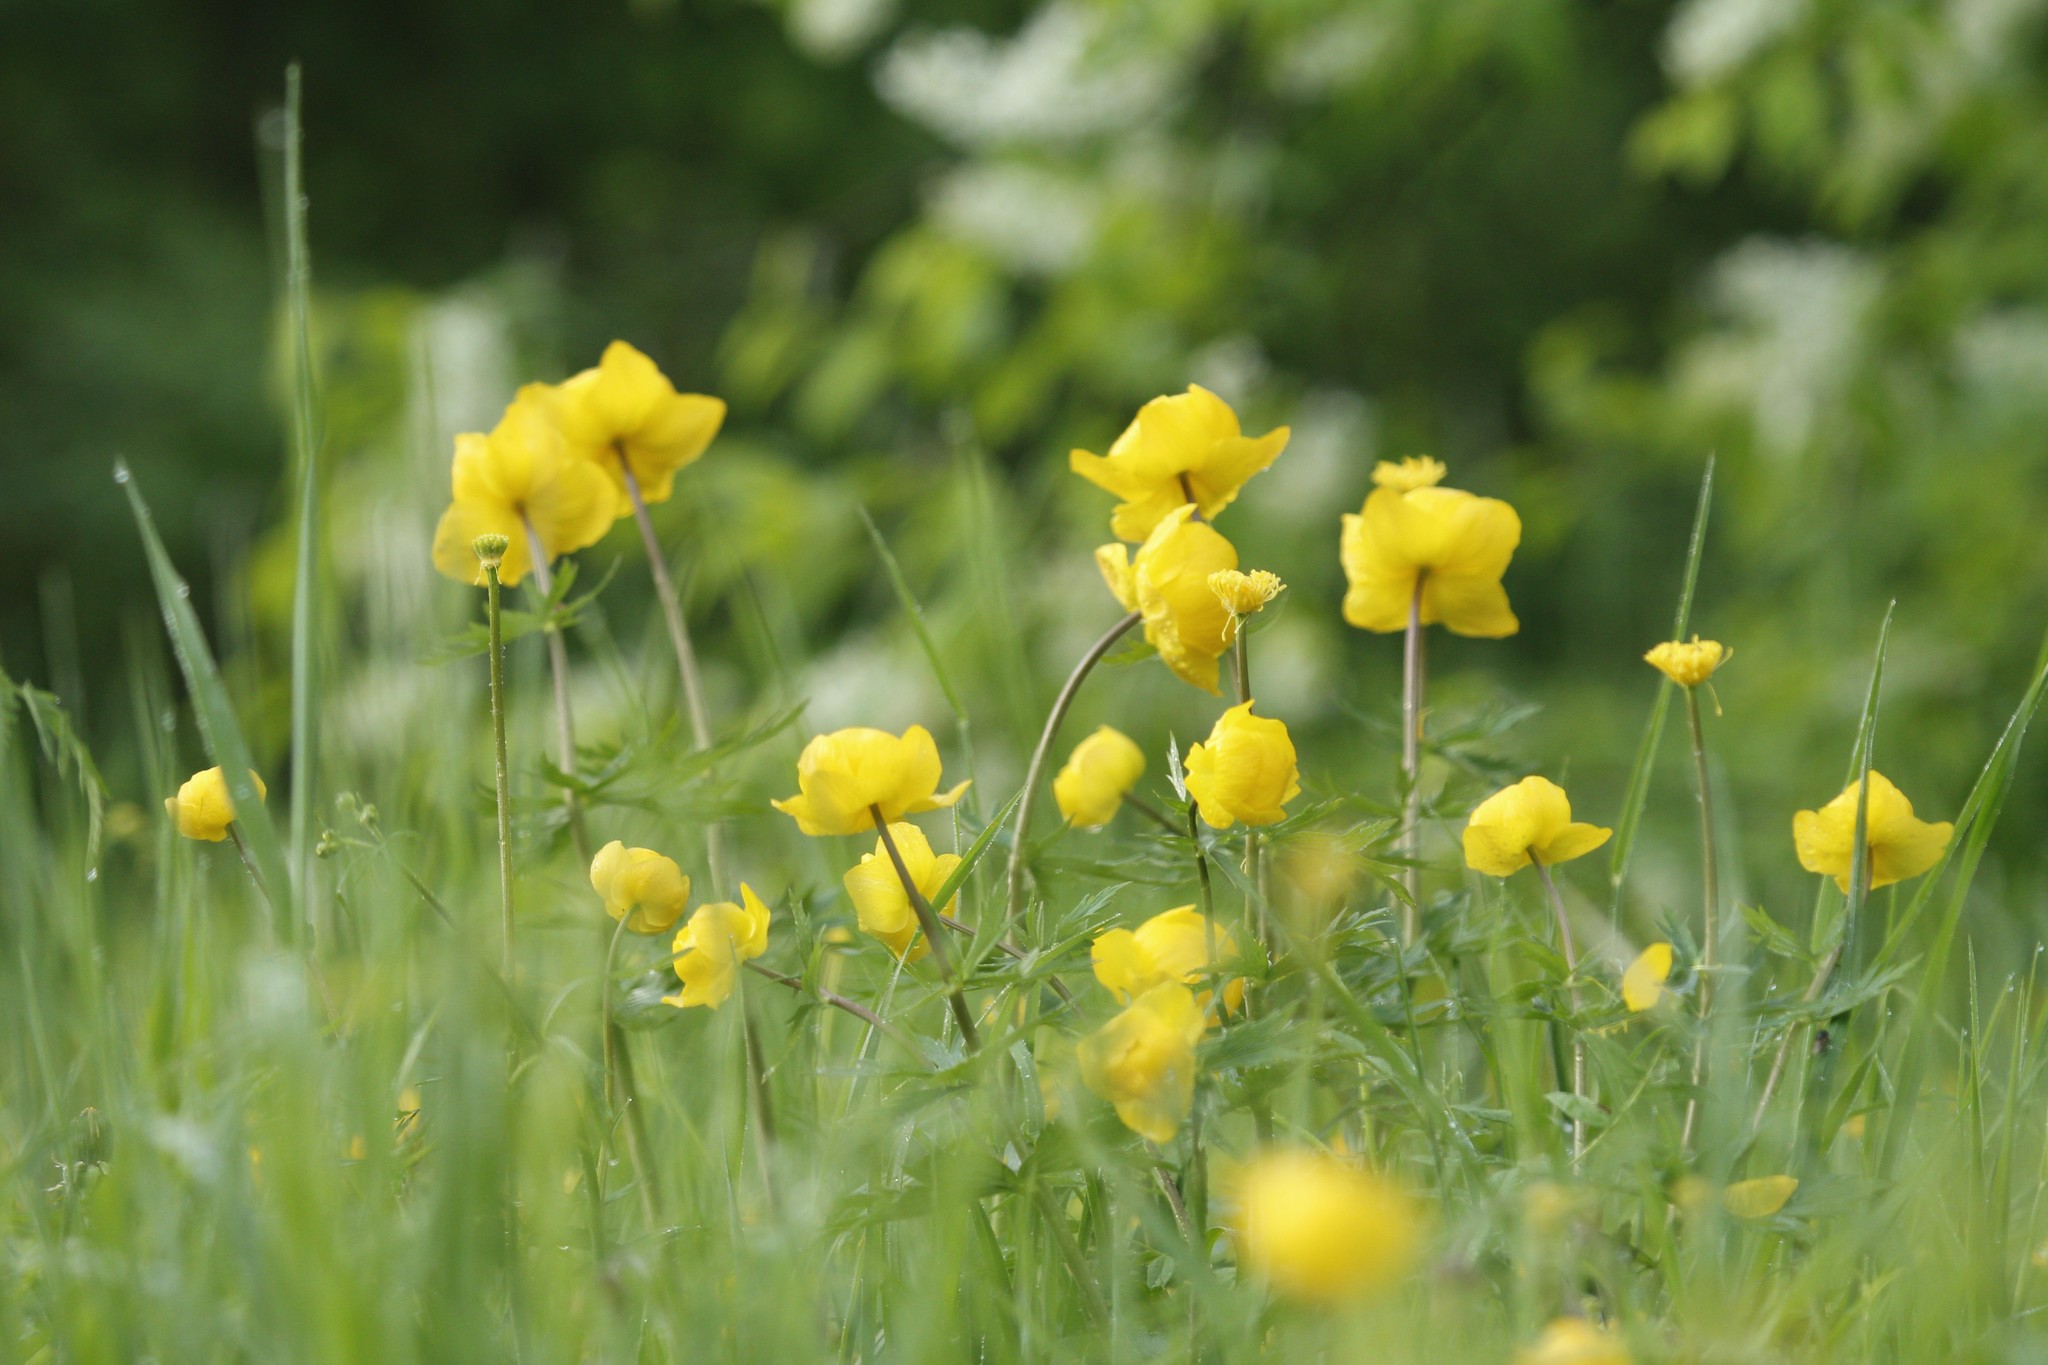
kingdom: Plantae
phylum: Tracheophyta
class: Magnoliopsida
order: Ranunculales
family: Ranunculaceae
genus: Trollius
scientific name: Trollius europaeus
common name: European globeflower
